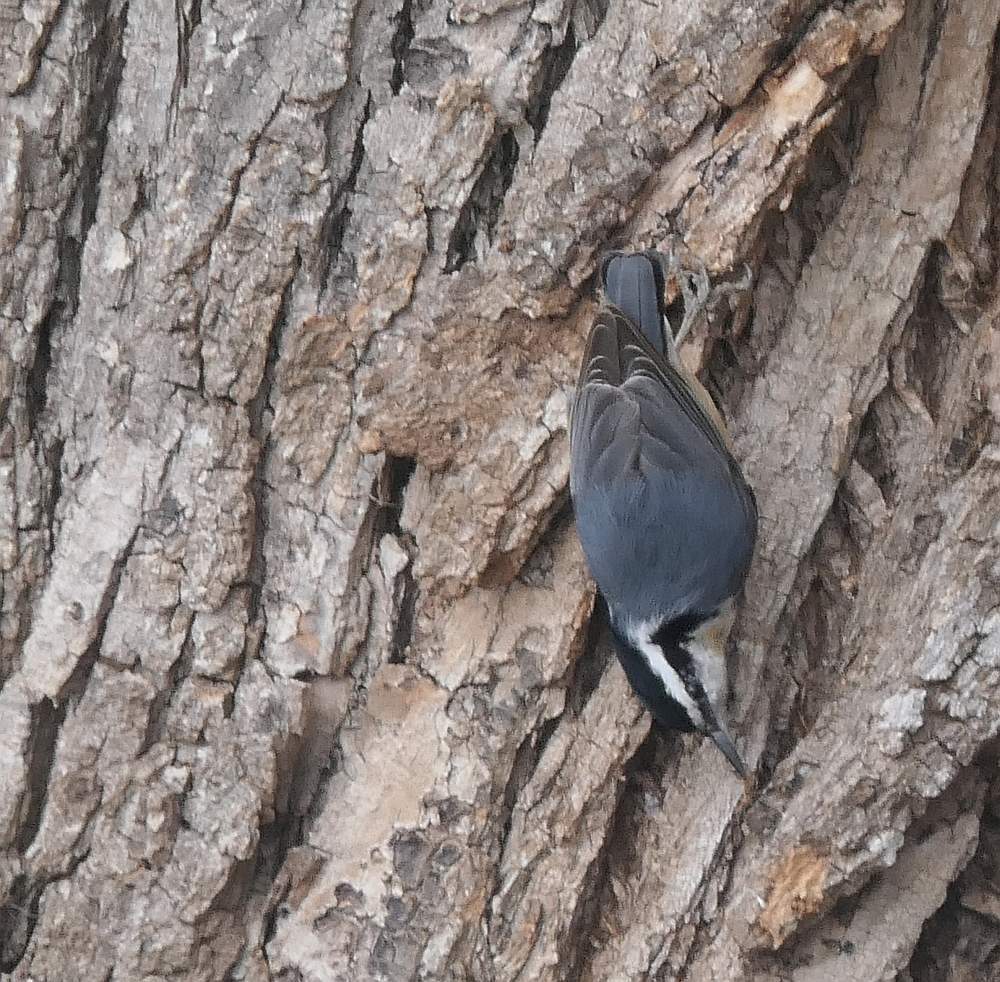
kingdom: Animalia
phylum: Chordata
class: Aves
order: Passeriformes
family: Sittidae
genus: Sitta
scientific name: Sitta canadensis
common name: Red-breasted nuthatch
